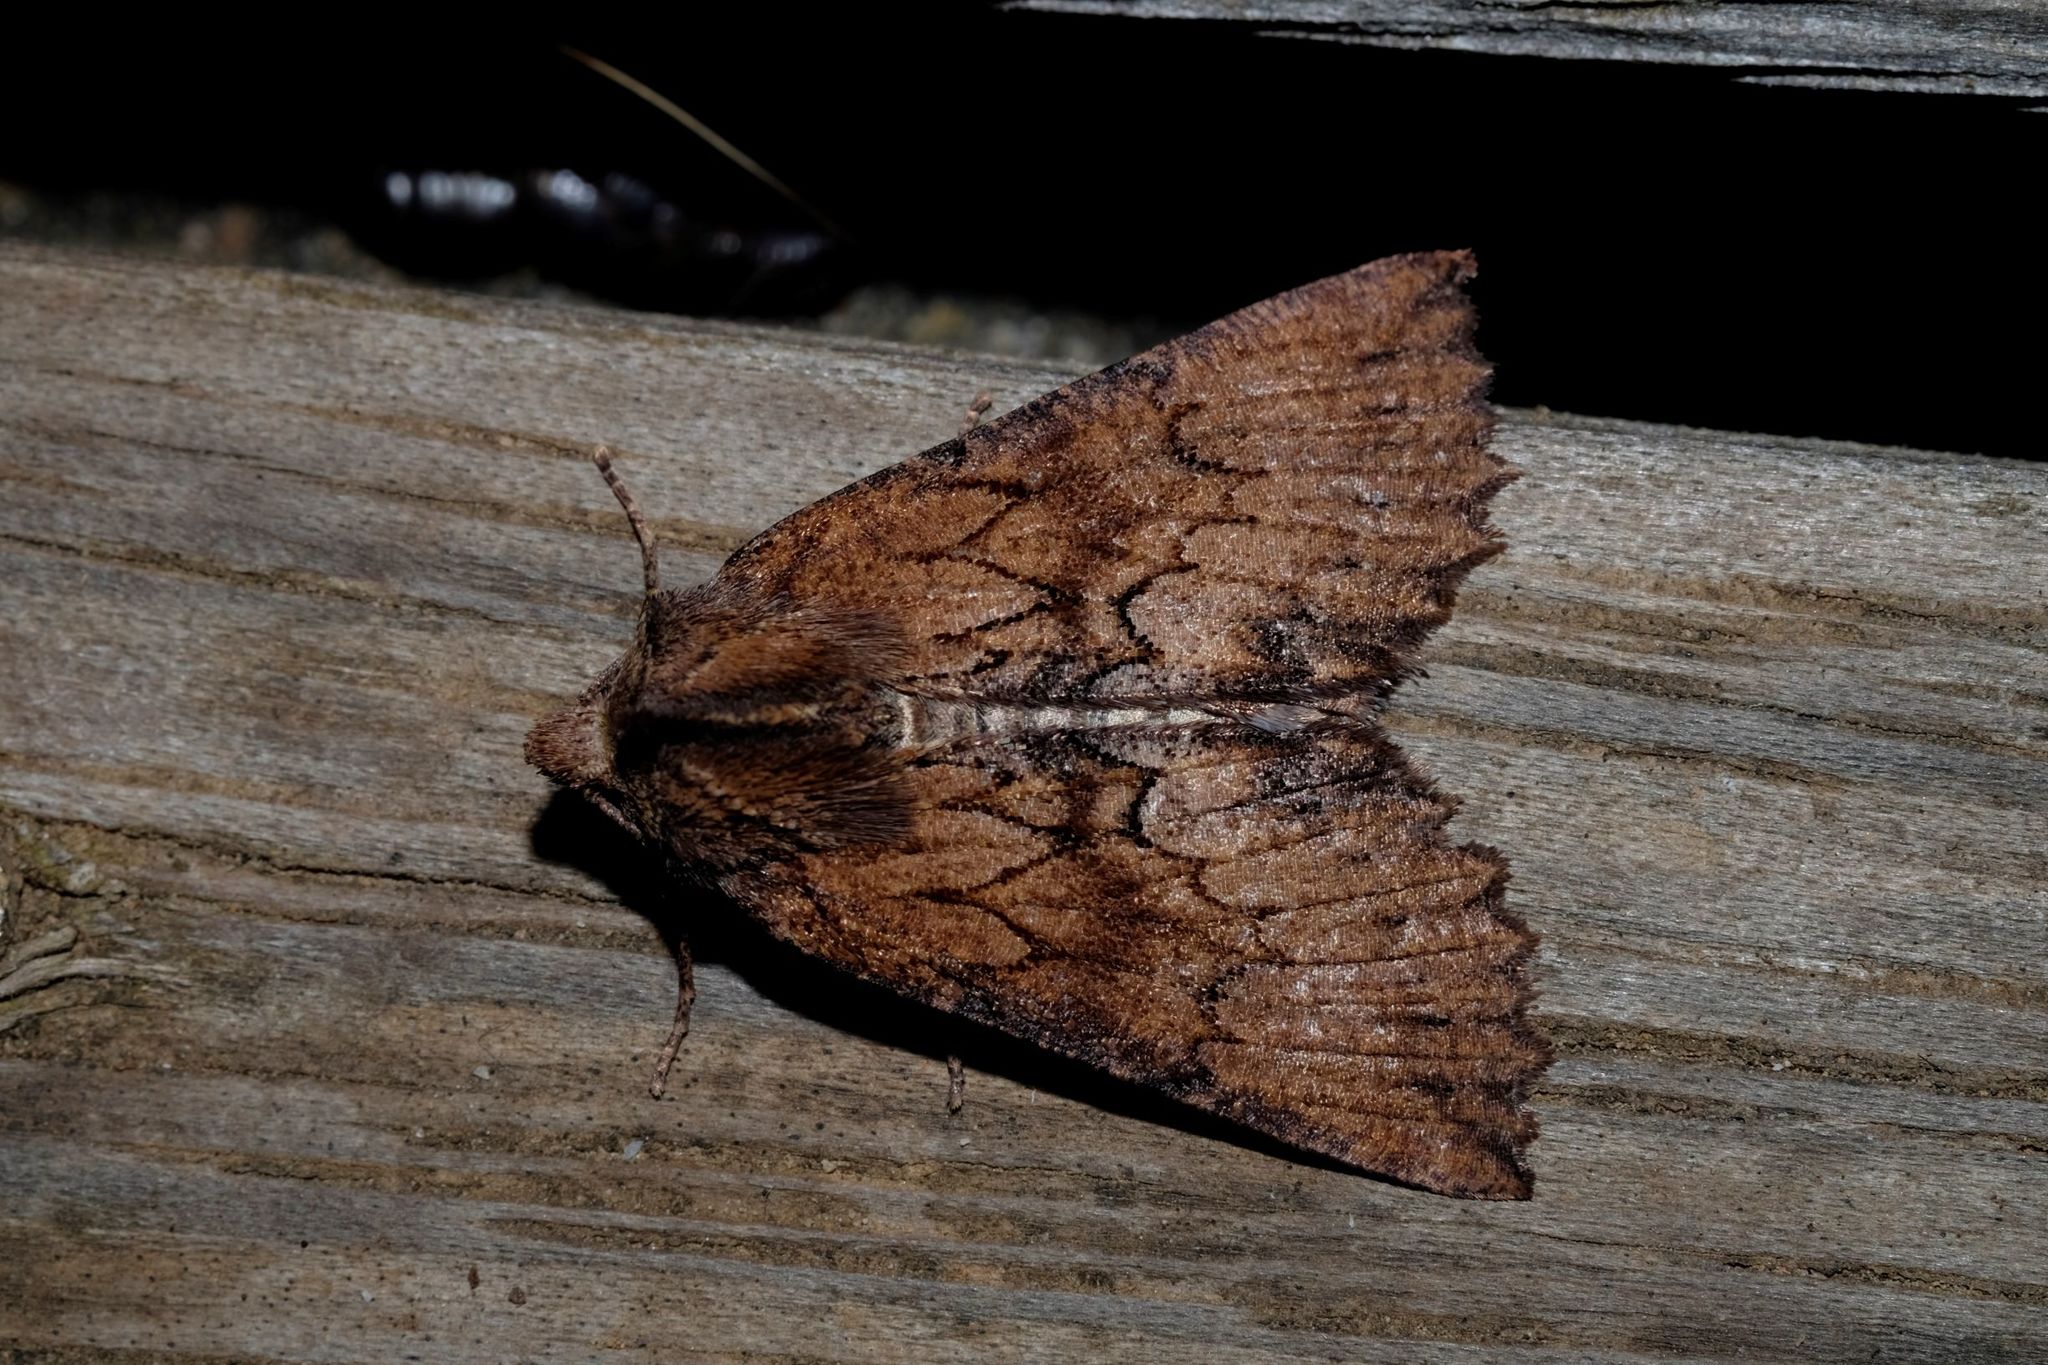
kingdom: Animalia
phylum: Arthropoda
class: Insecta
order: Lepidoptera
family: Geometridae
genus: Nisista
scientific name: Nisista serrata
